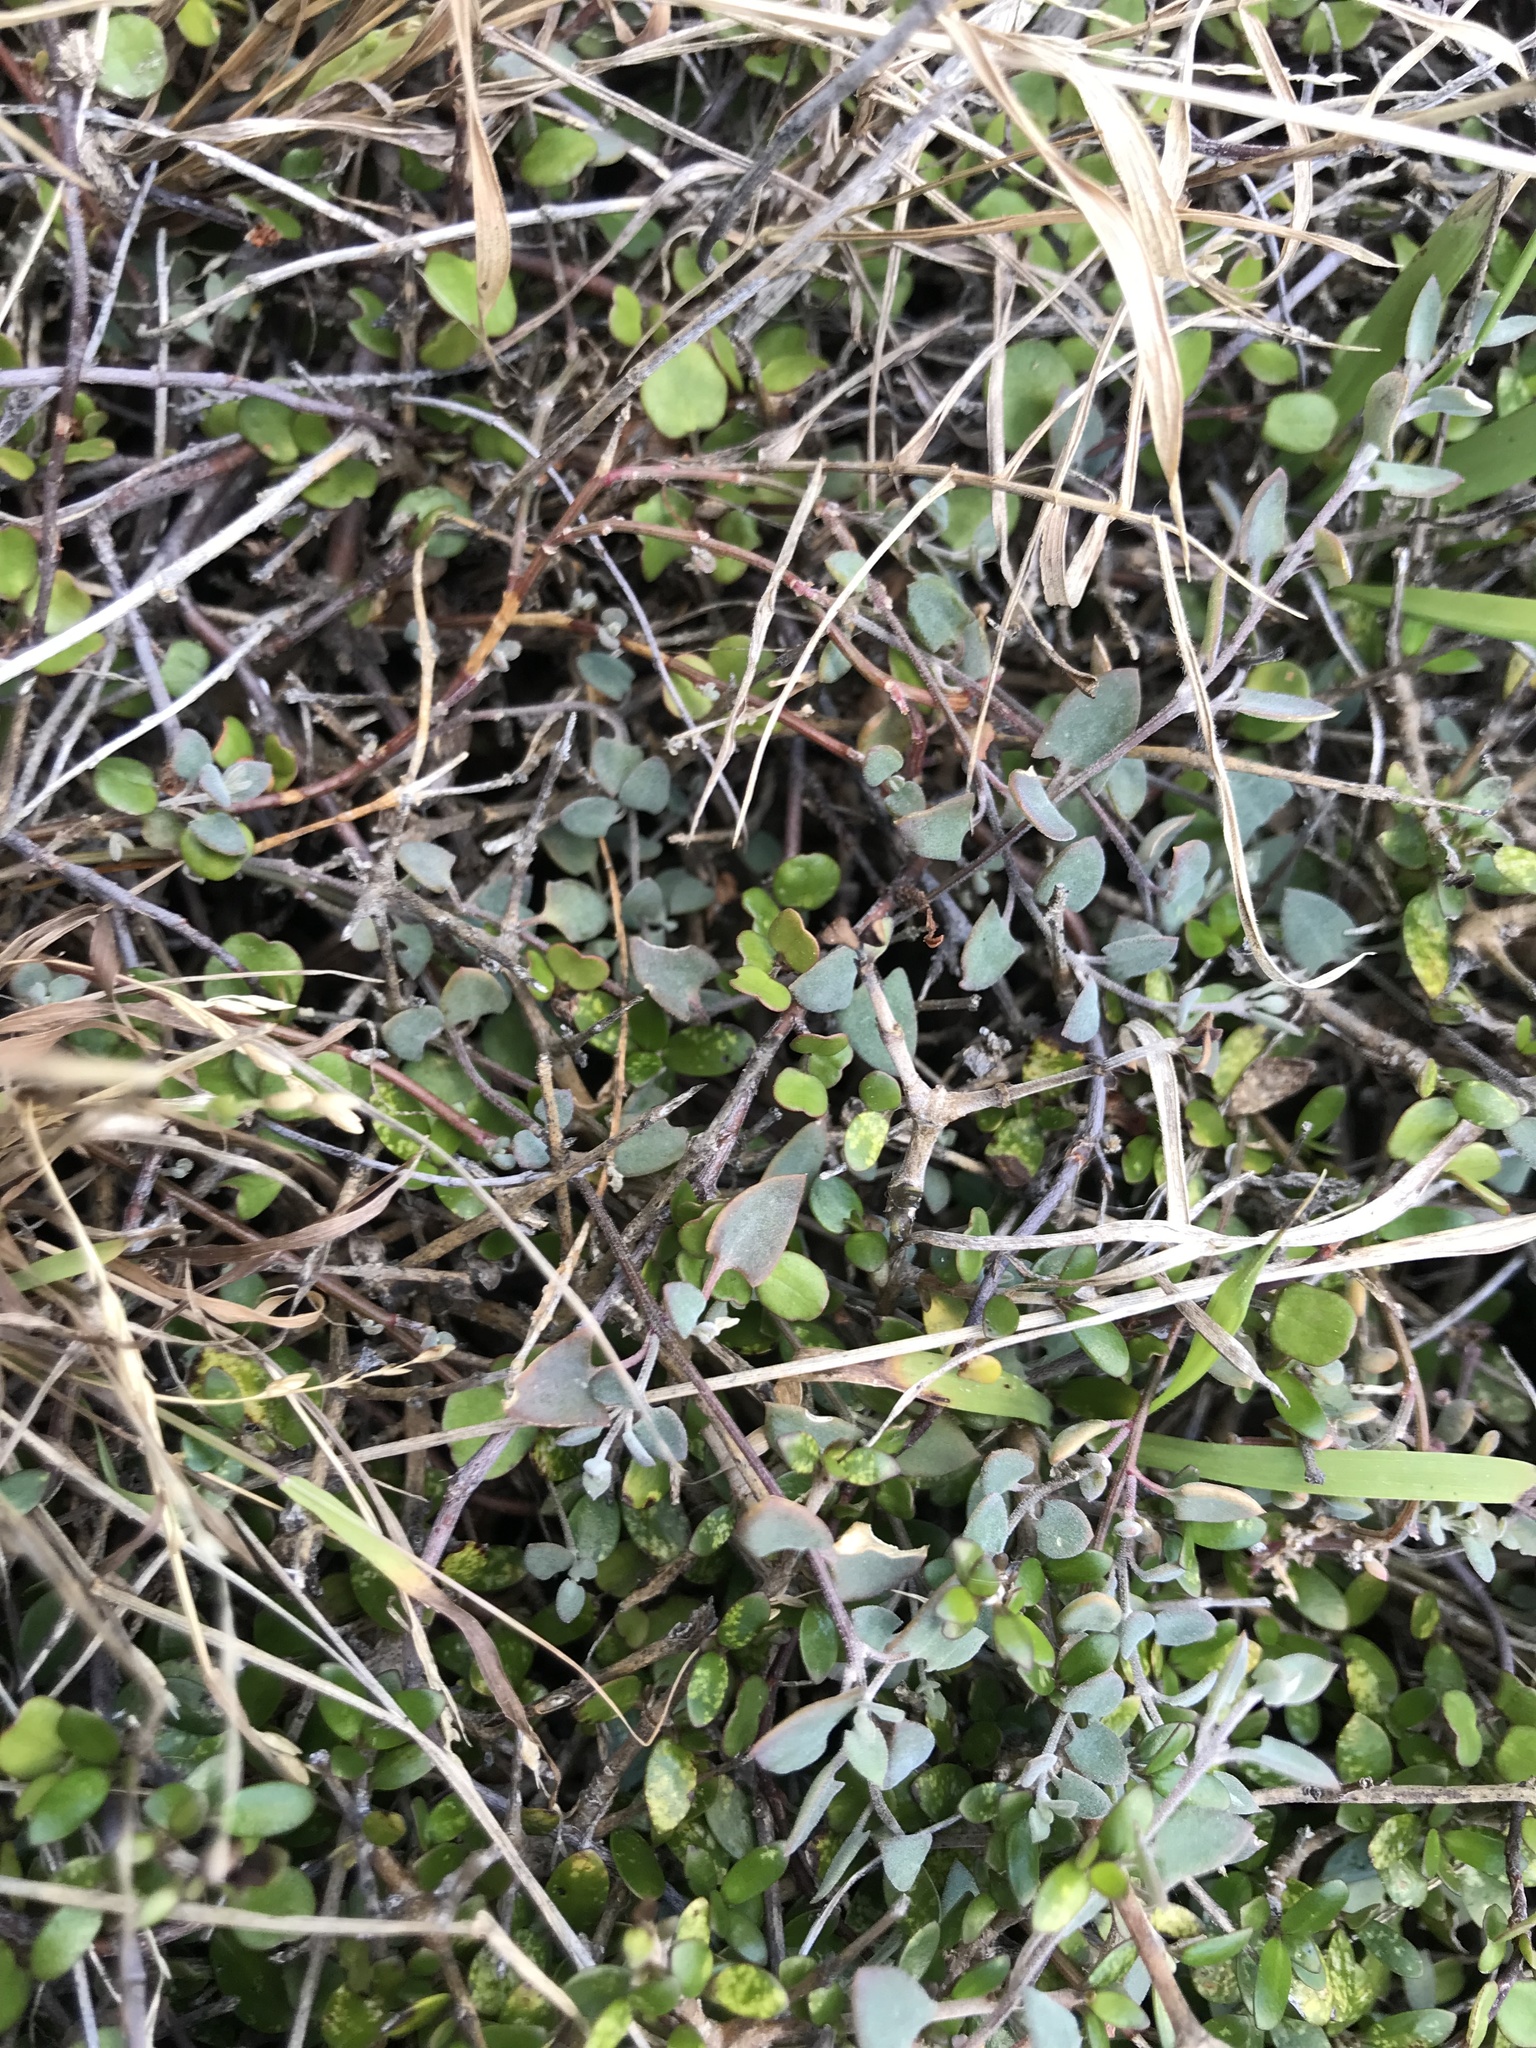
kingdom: Plantae
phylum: Tracheophyta
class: Magnoliopsida
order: Caryophyllales
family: Amaranthaceae
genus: Chenopodium
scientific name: Chenopodium triandrum
